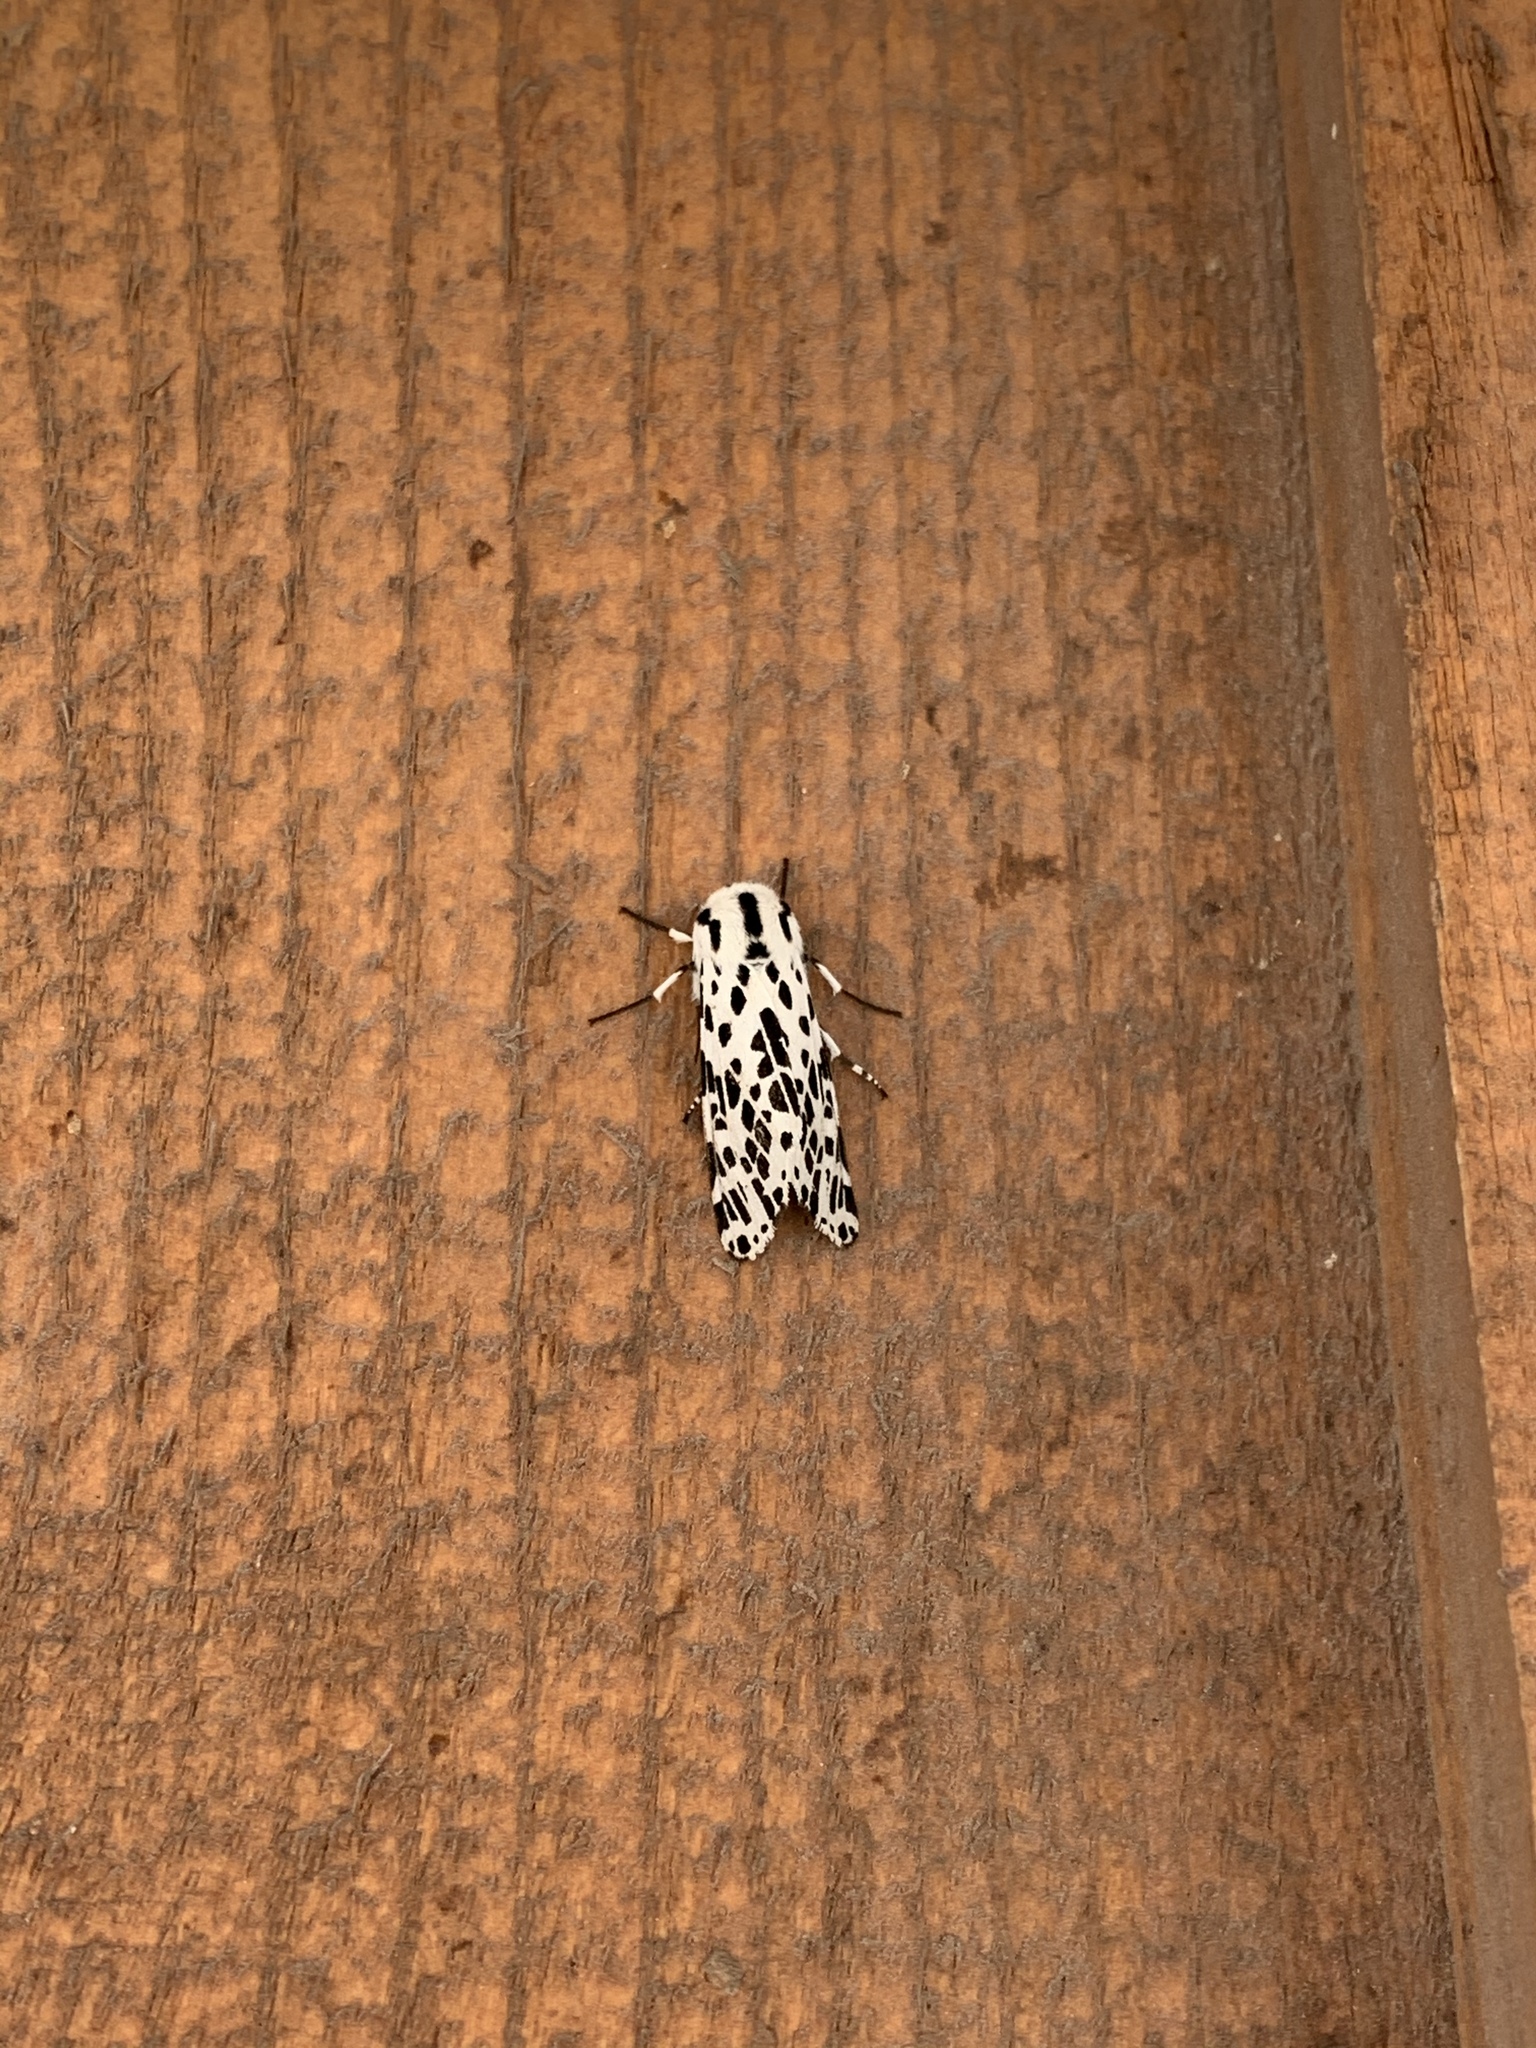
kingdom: Animalia
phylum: Arthropoda
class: Insecta
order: Lepidoptera
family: Erebidae
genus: Hypercompe
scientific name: Hypercompe permaculata
